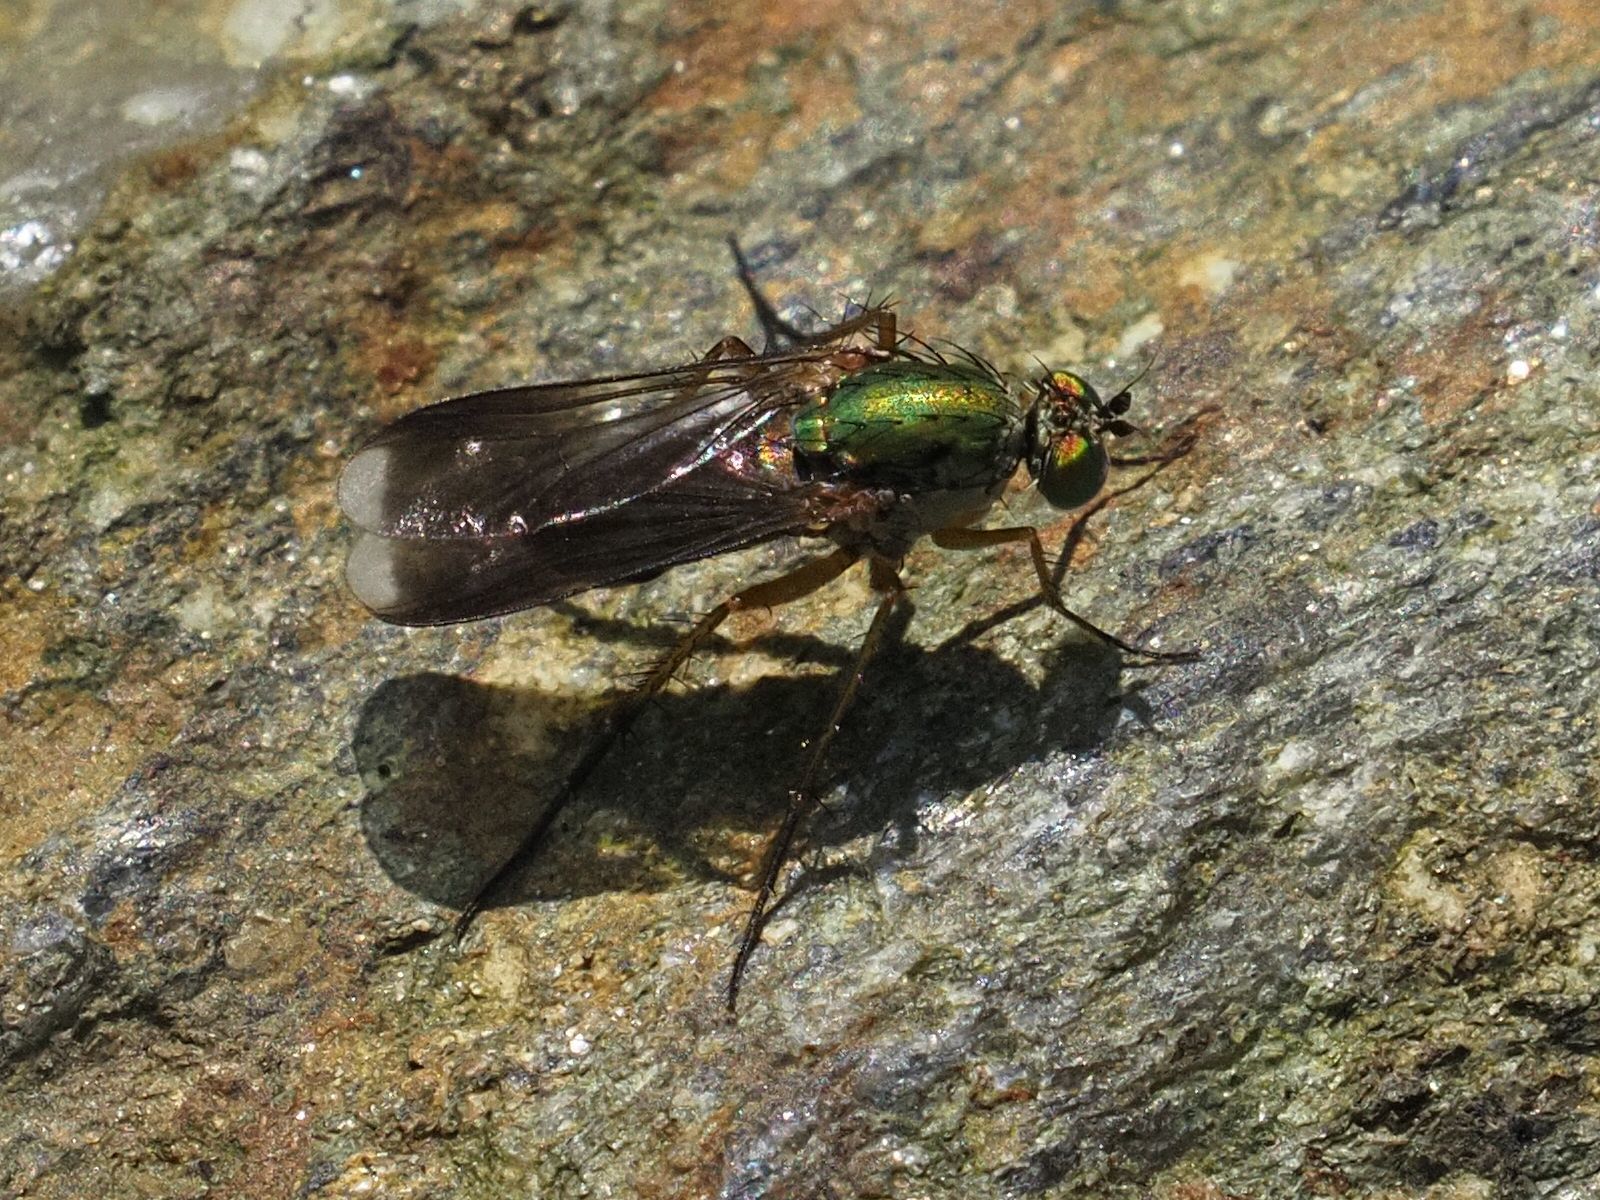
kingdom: Animalia
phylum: Arthropoda
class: Insecta
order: Diptera
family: Dolichopodidae
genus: Poecilobothrus
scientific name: Poecilobothrus nobilitatus
